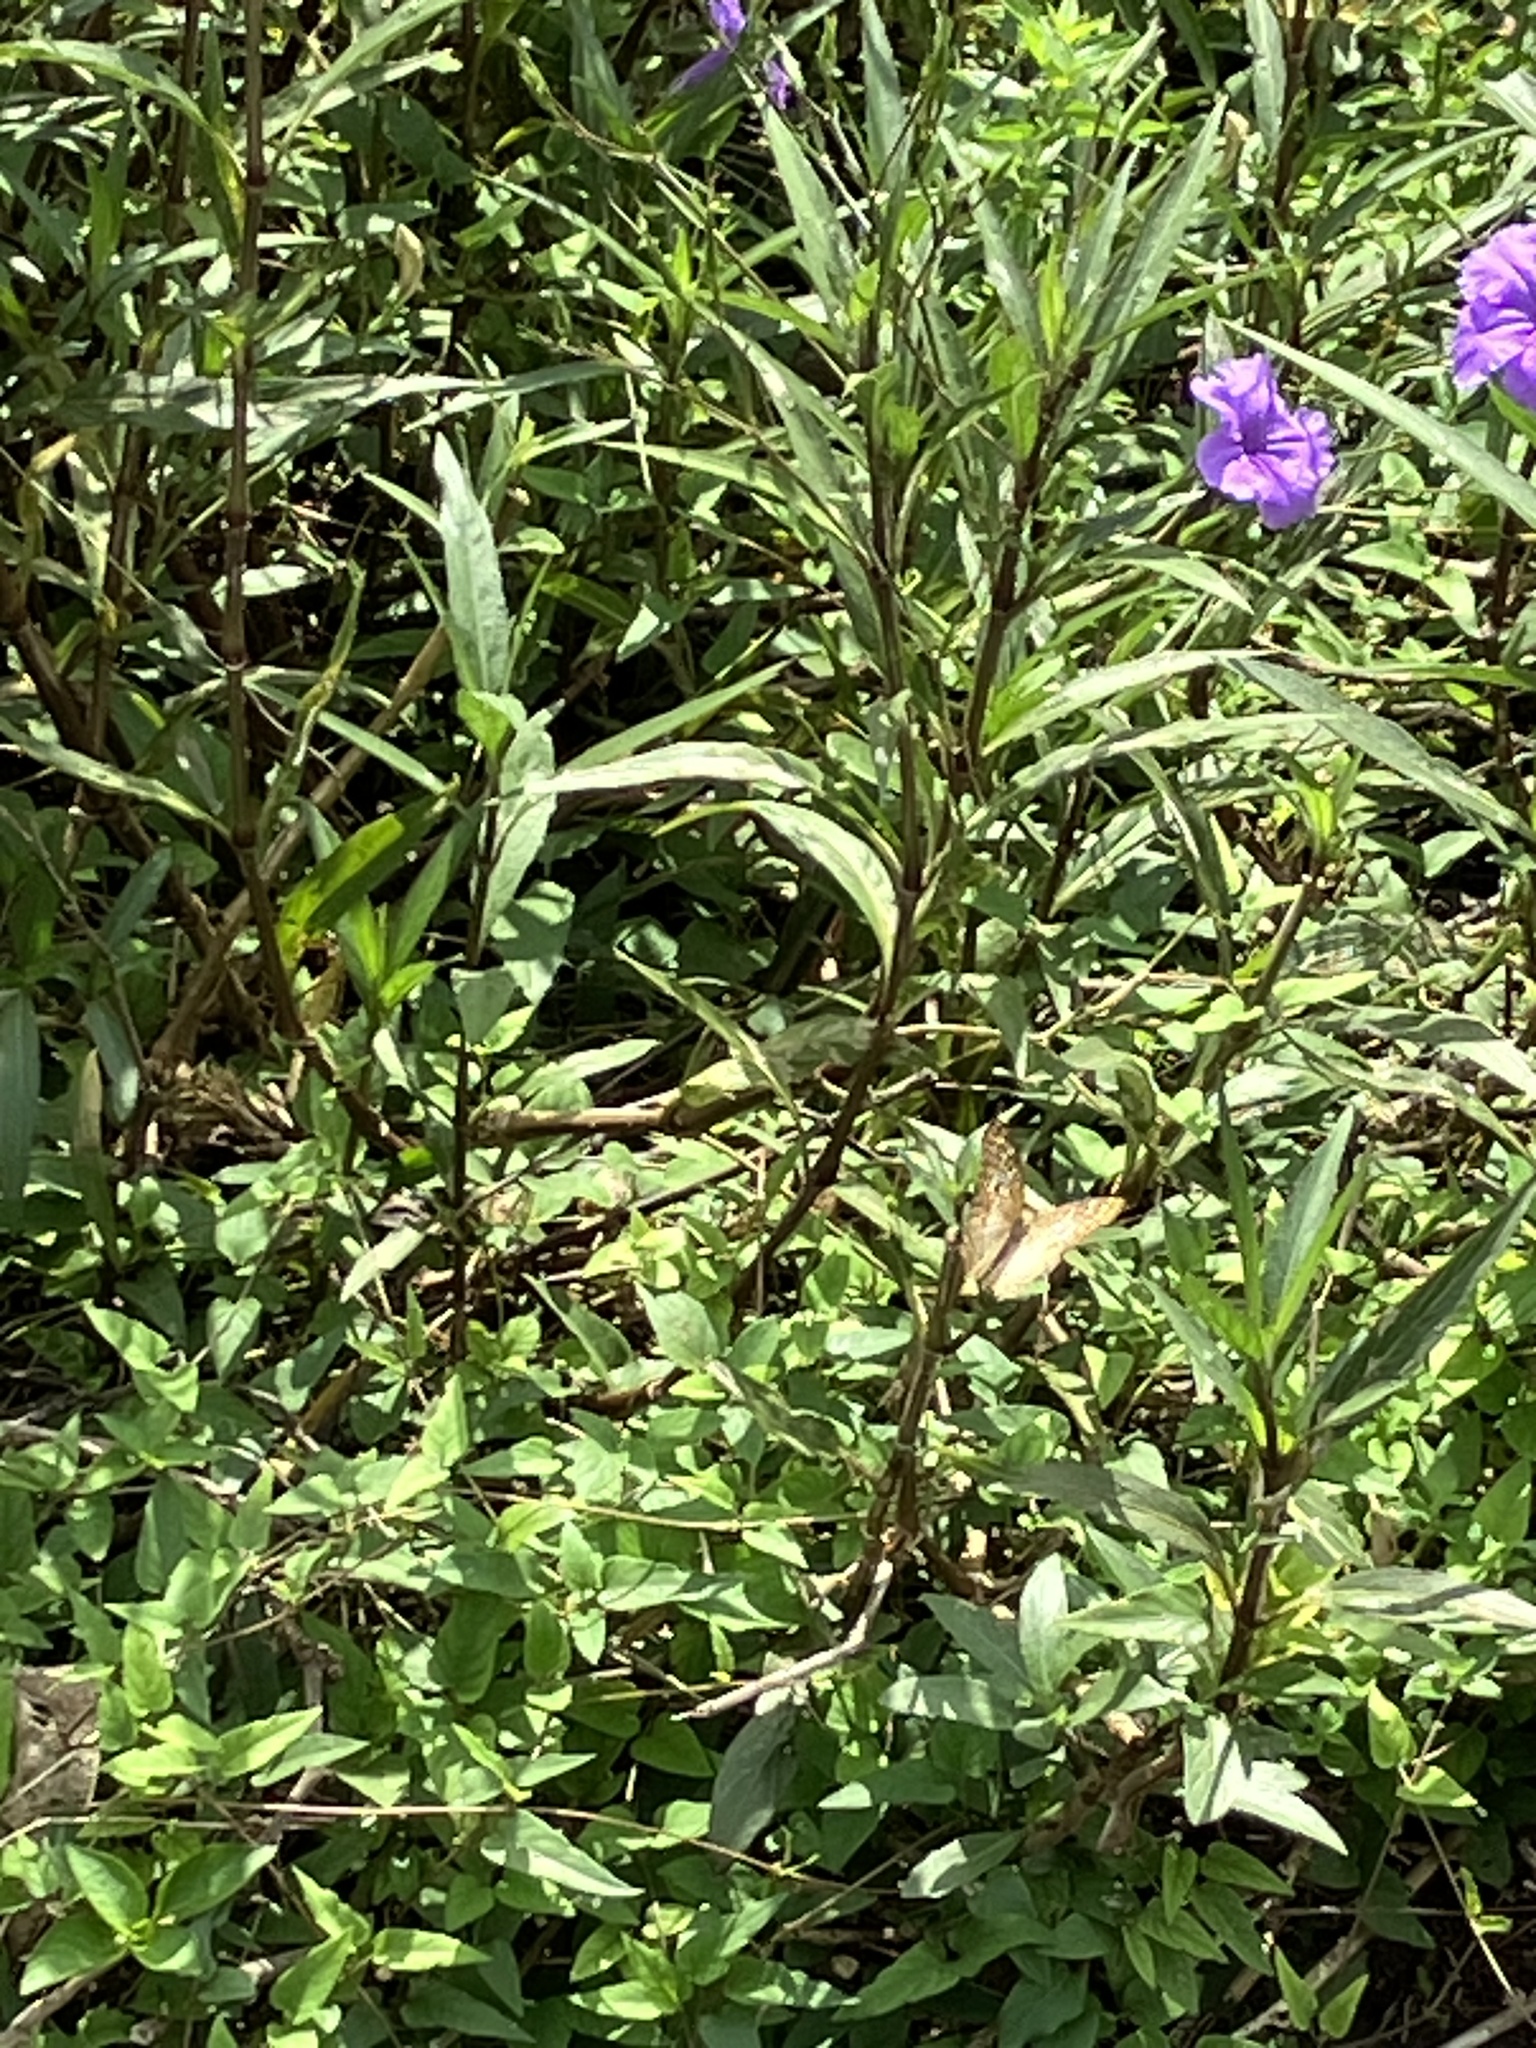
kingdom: Animalia
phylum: Arthropoda
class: Insecta
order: Lepidoptera
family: Nymphalidae
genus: Anartia
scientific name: Anartia jatrophae
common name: White peacock
